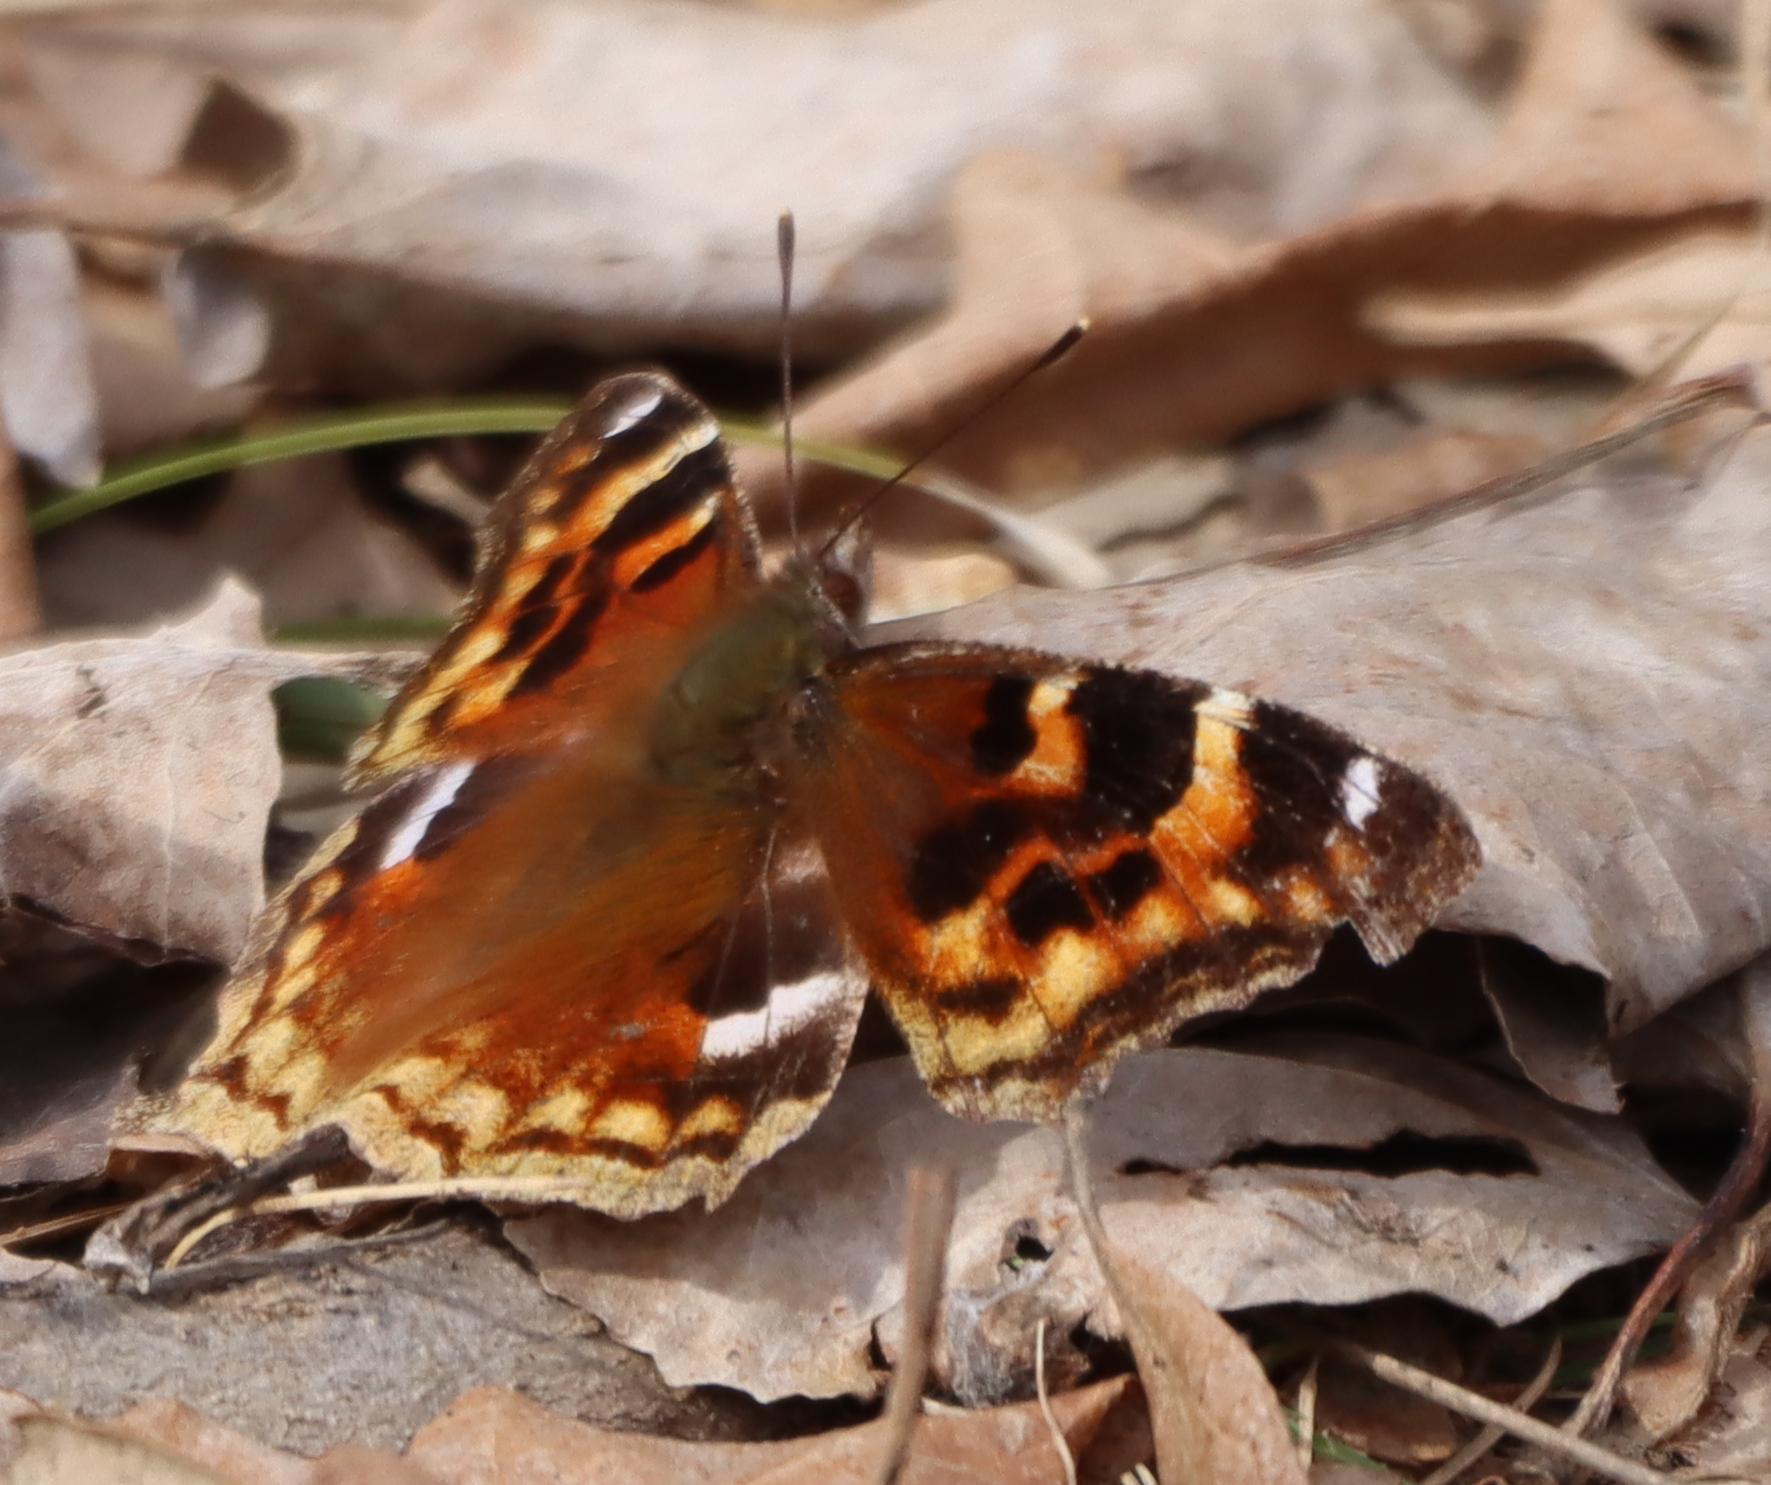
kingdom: Animalia
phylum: Arthropoda
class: Insecta
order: Lepidoptera
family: Nymphalidae
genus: Polygonia
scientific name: Polygonia vaualbum
